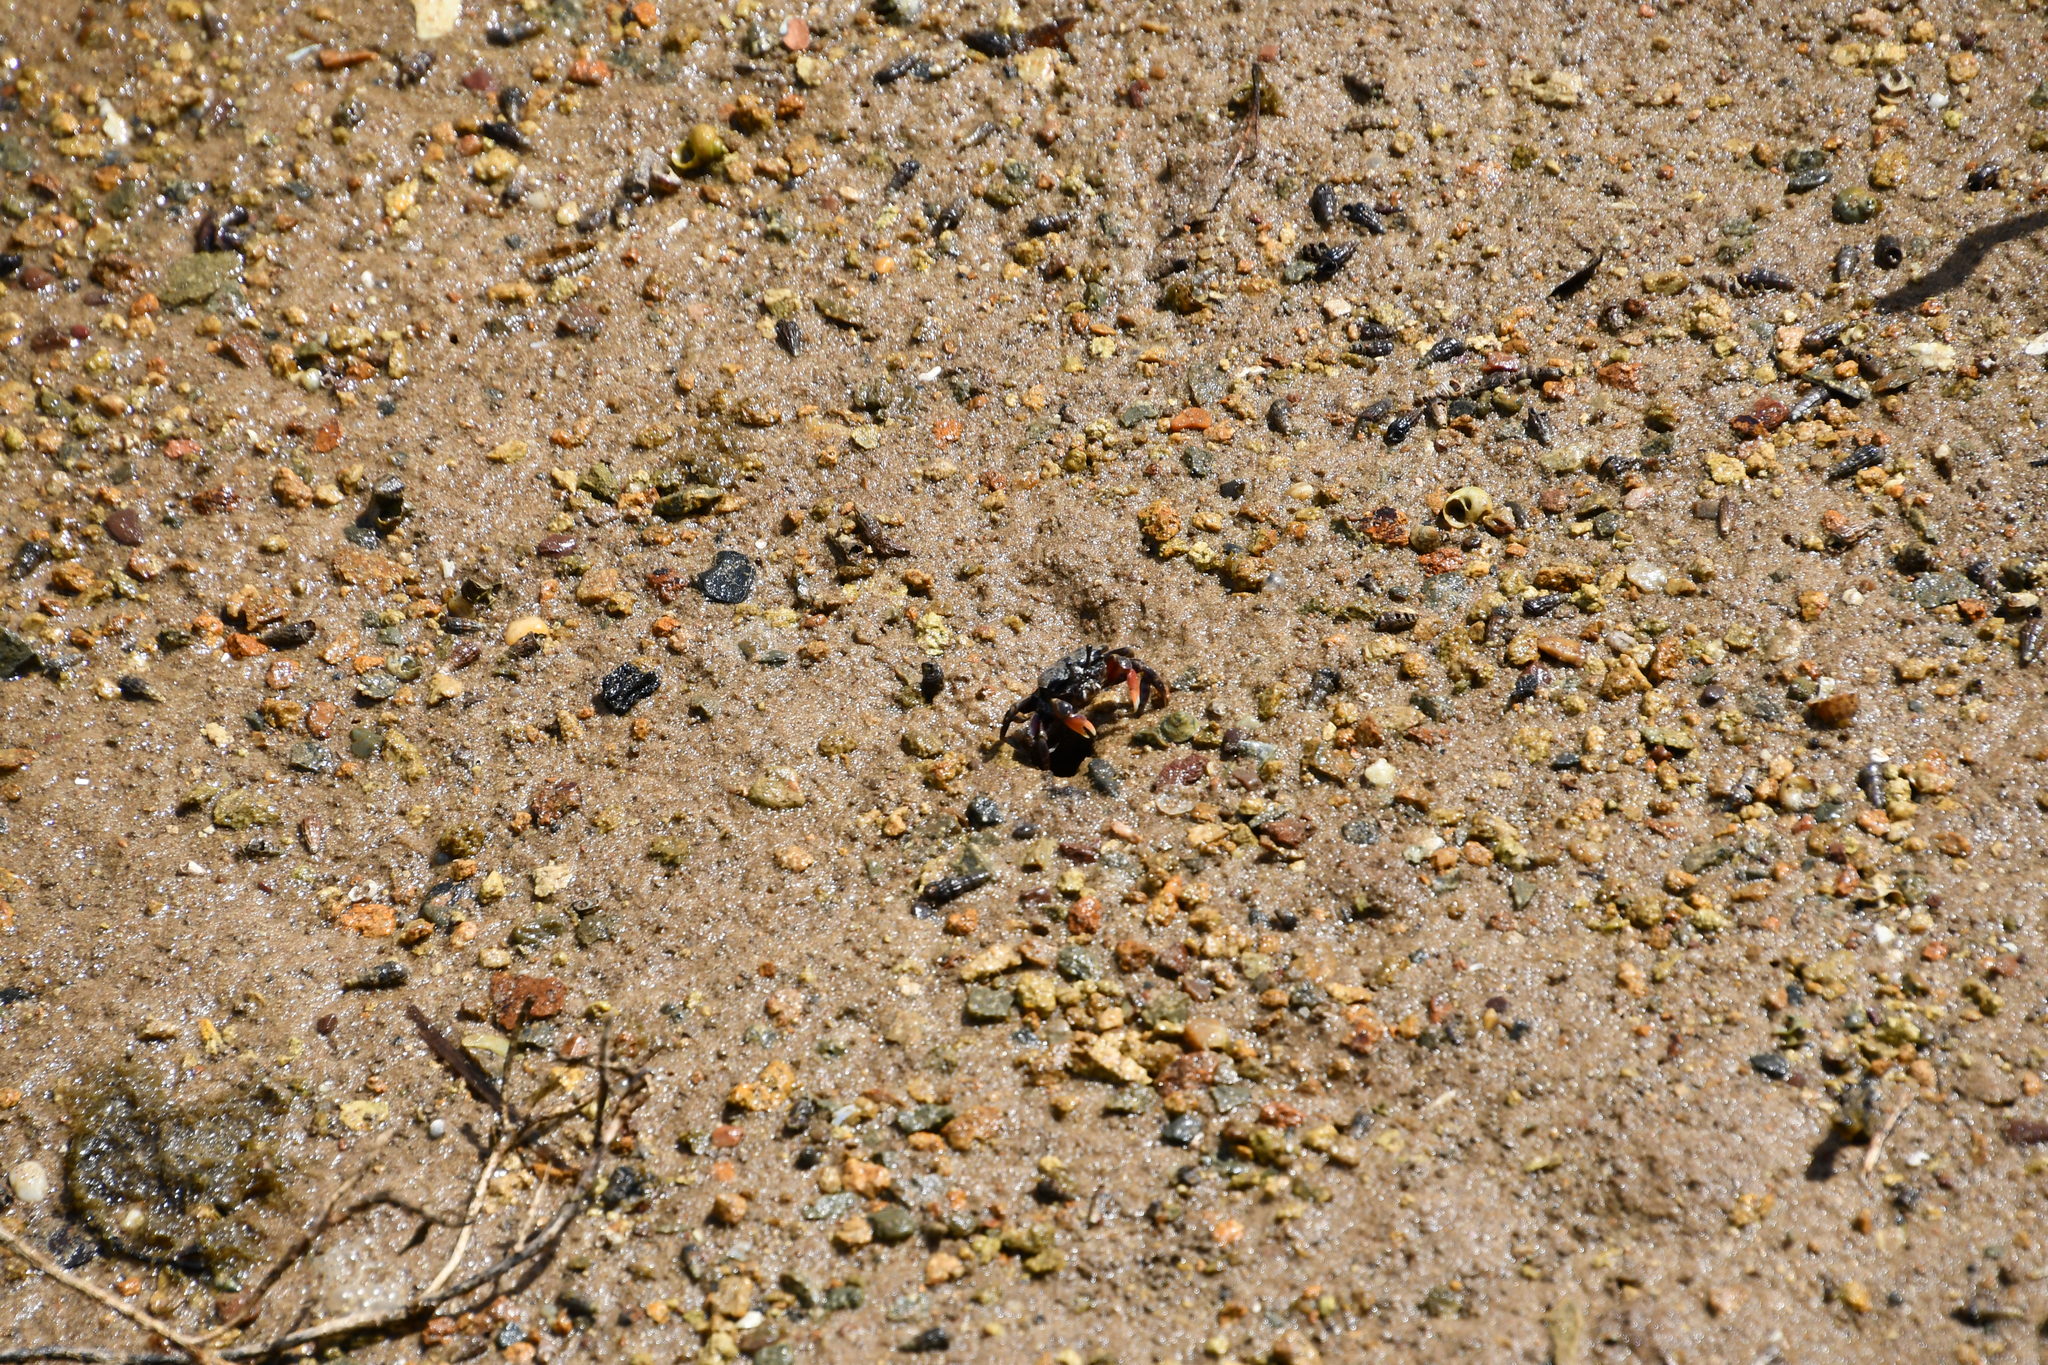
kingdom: Animalia
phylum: Arthropoda
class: Malacostraca
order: Decapoda
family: Heloeciidae
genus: Heloecius
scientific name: Heloecius cordiformis
